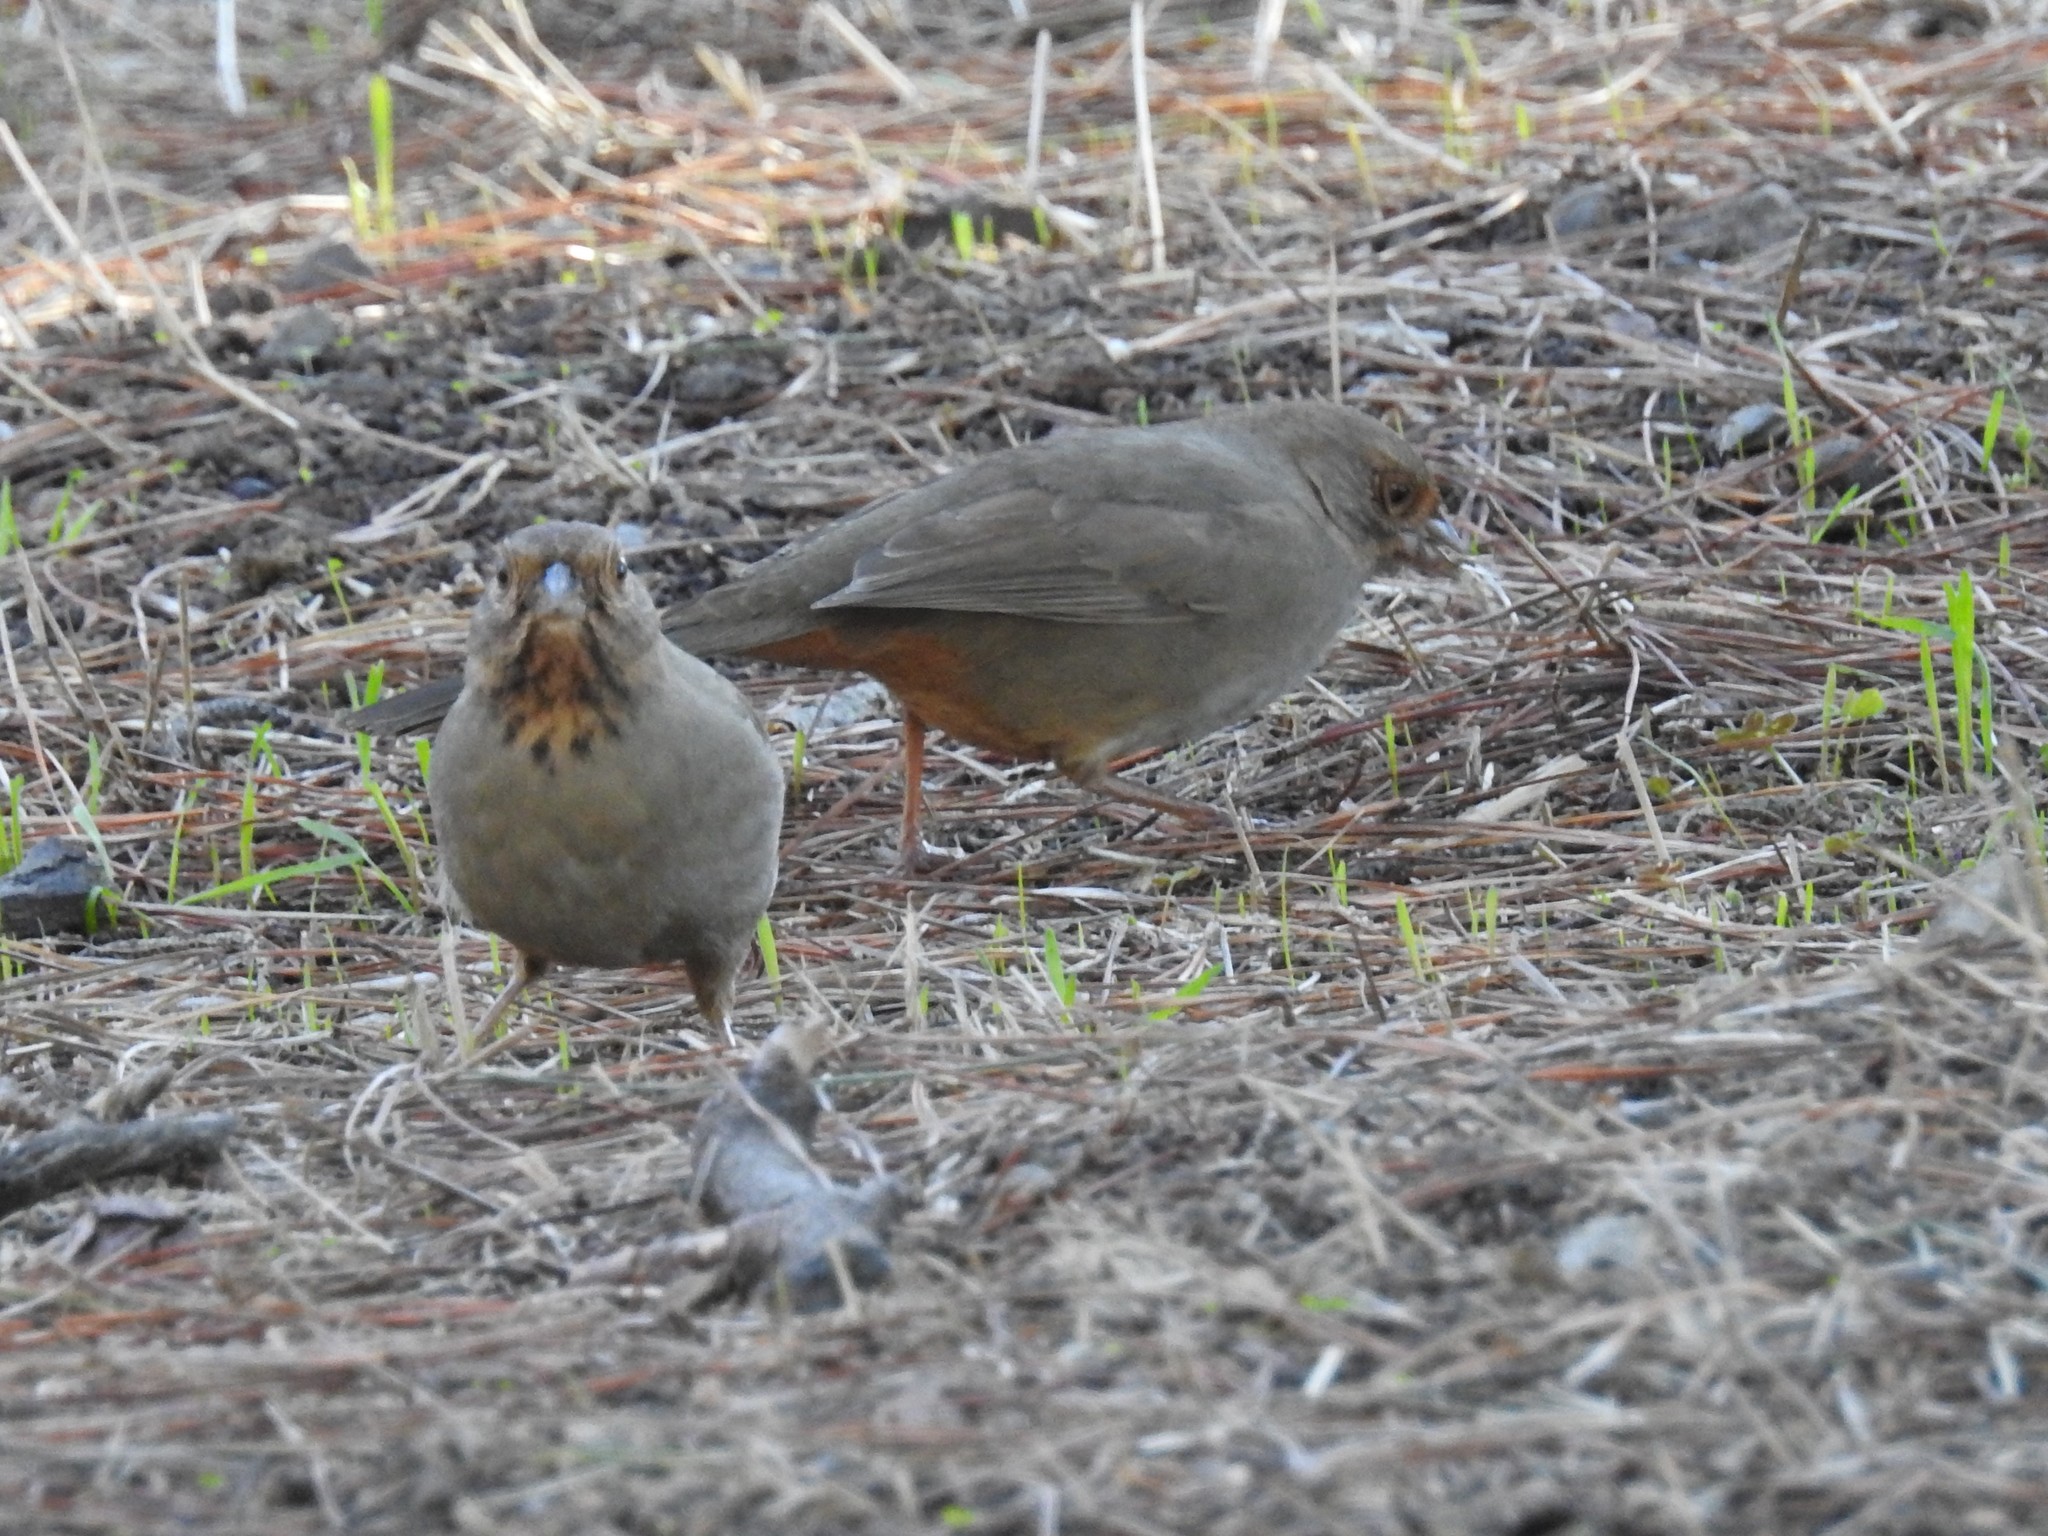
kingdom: Animalia
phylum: Chordata
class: Aves
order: Passeriformes
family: Passerellidae
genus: Melozone
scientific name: Melozone crissalis
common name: California towhee
